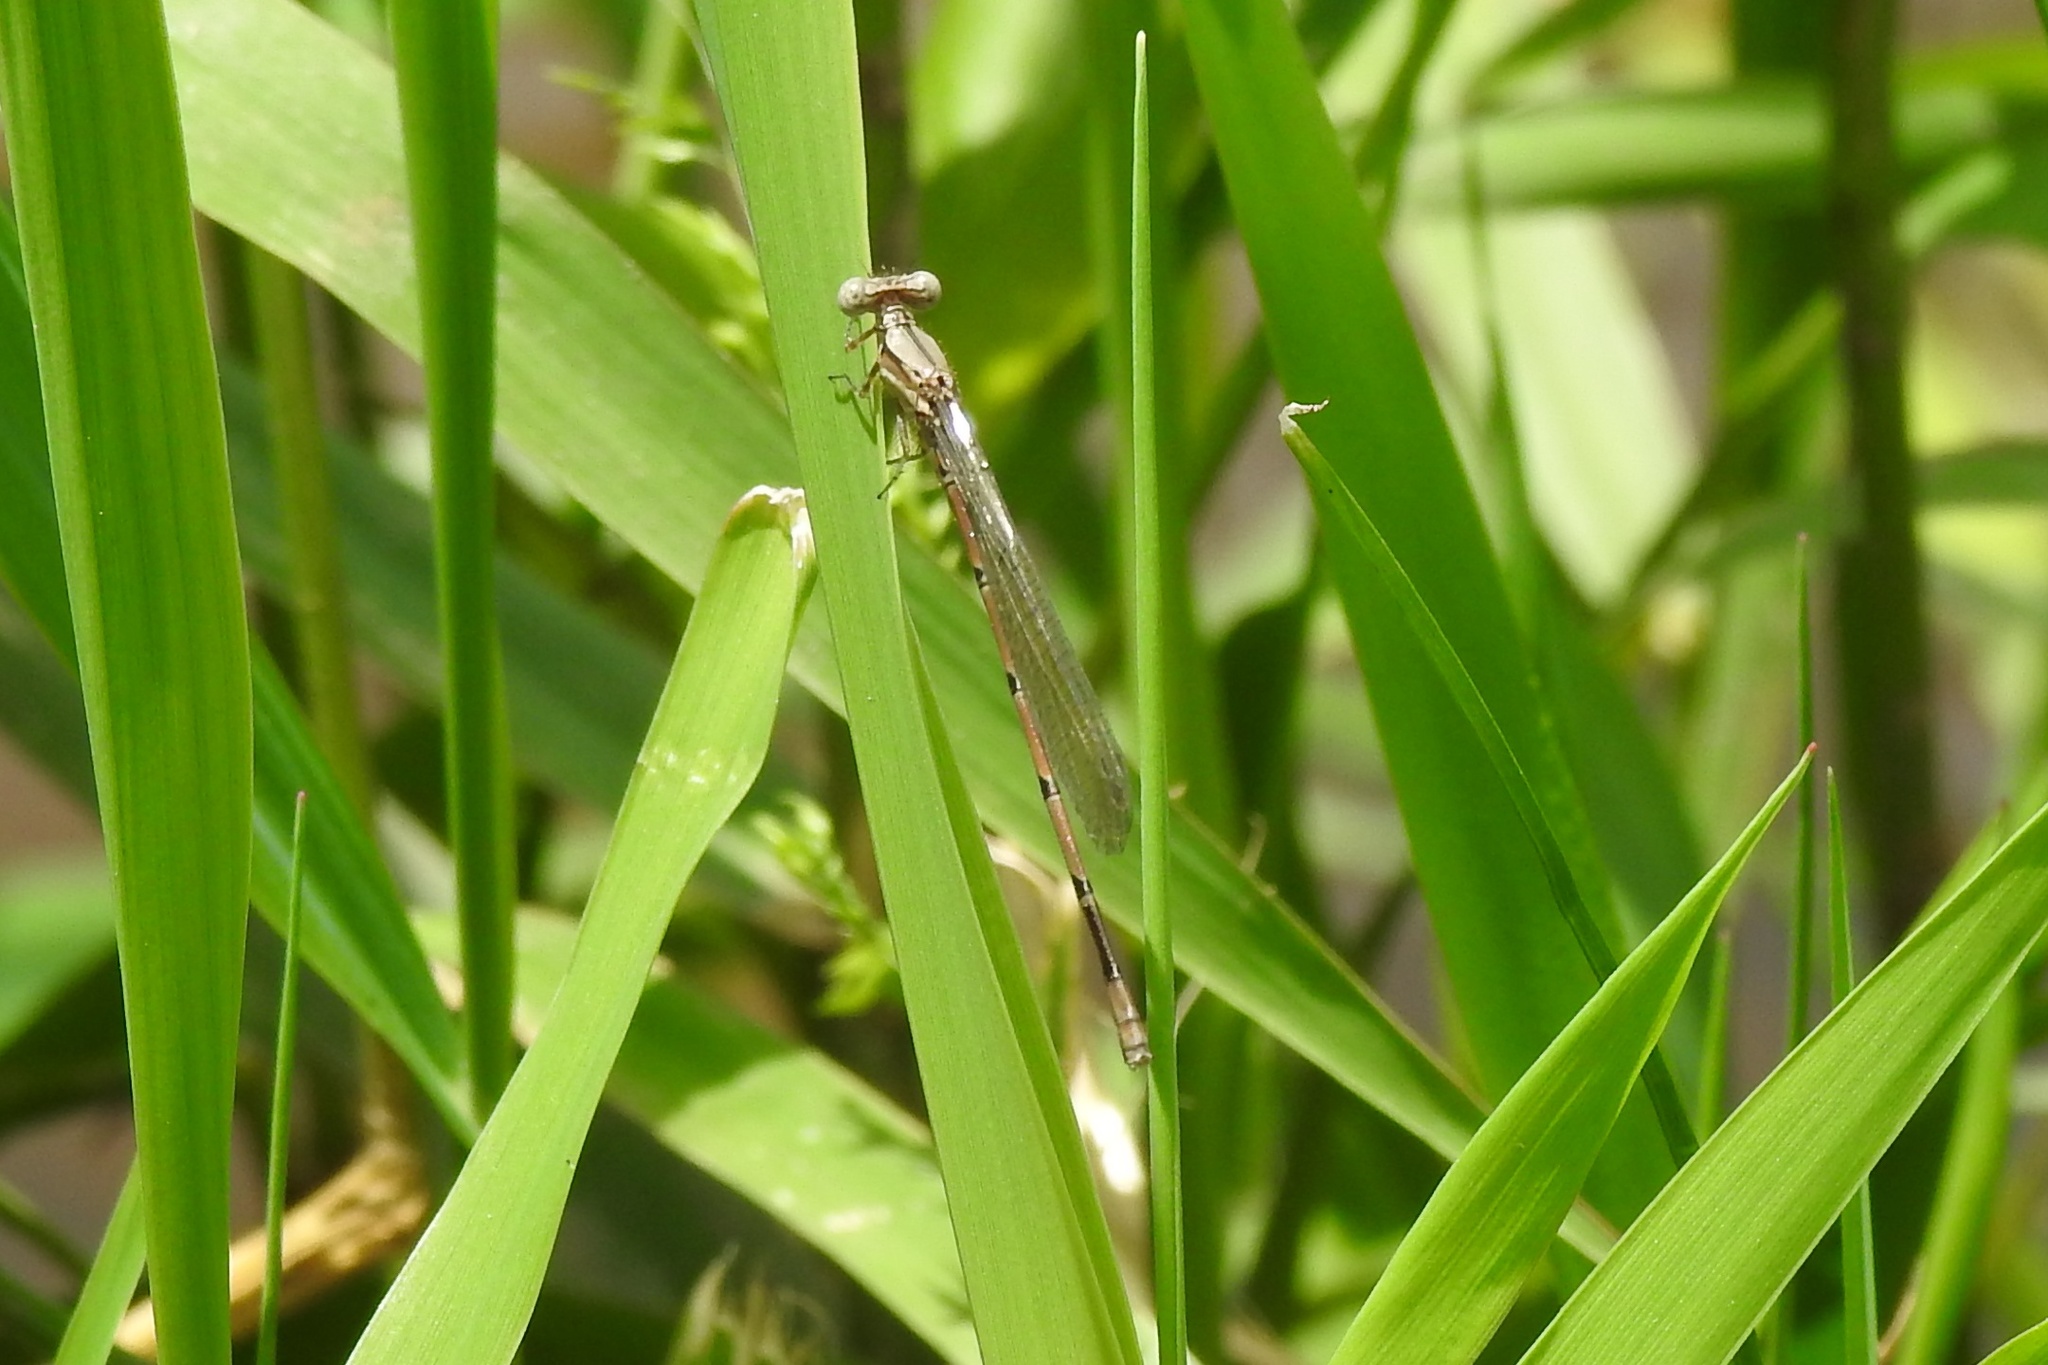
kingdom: Animalia
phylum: Arthropoda
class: Insecta
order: Odonata
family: Coenagrionidae
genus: Argia
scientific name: Argia fumipennis
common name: Variable dancer
